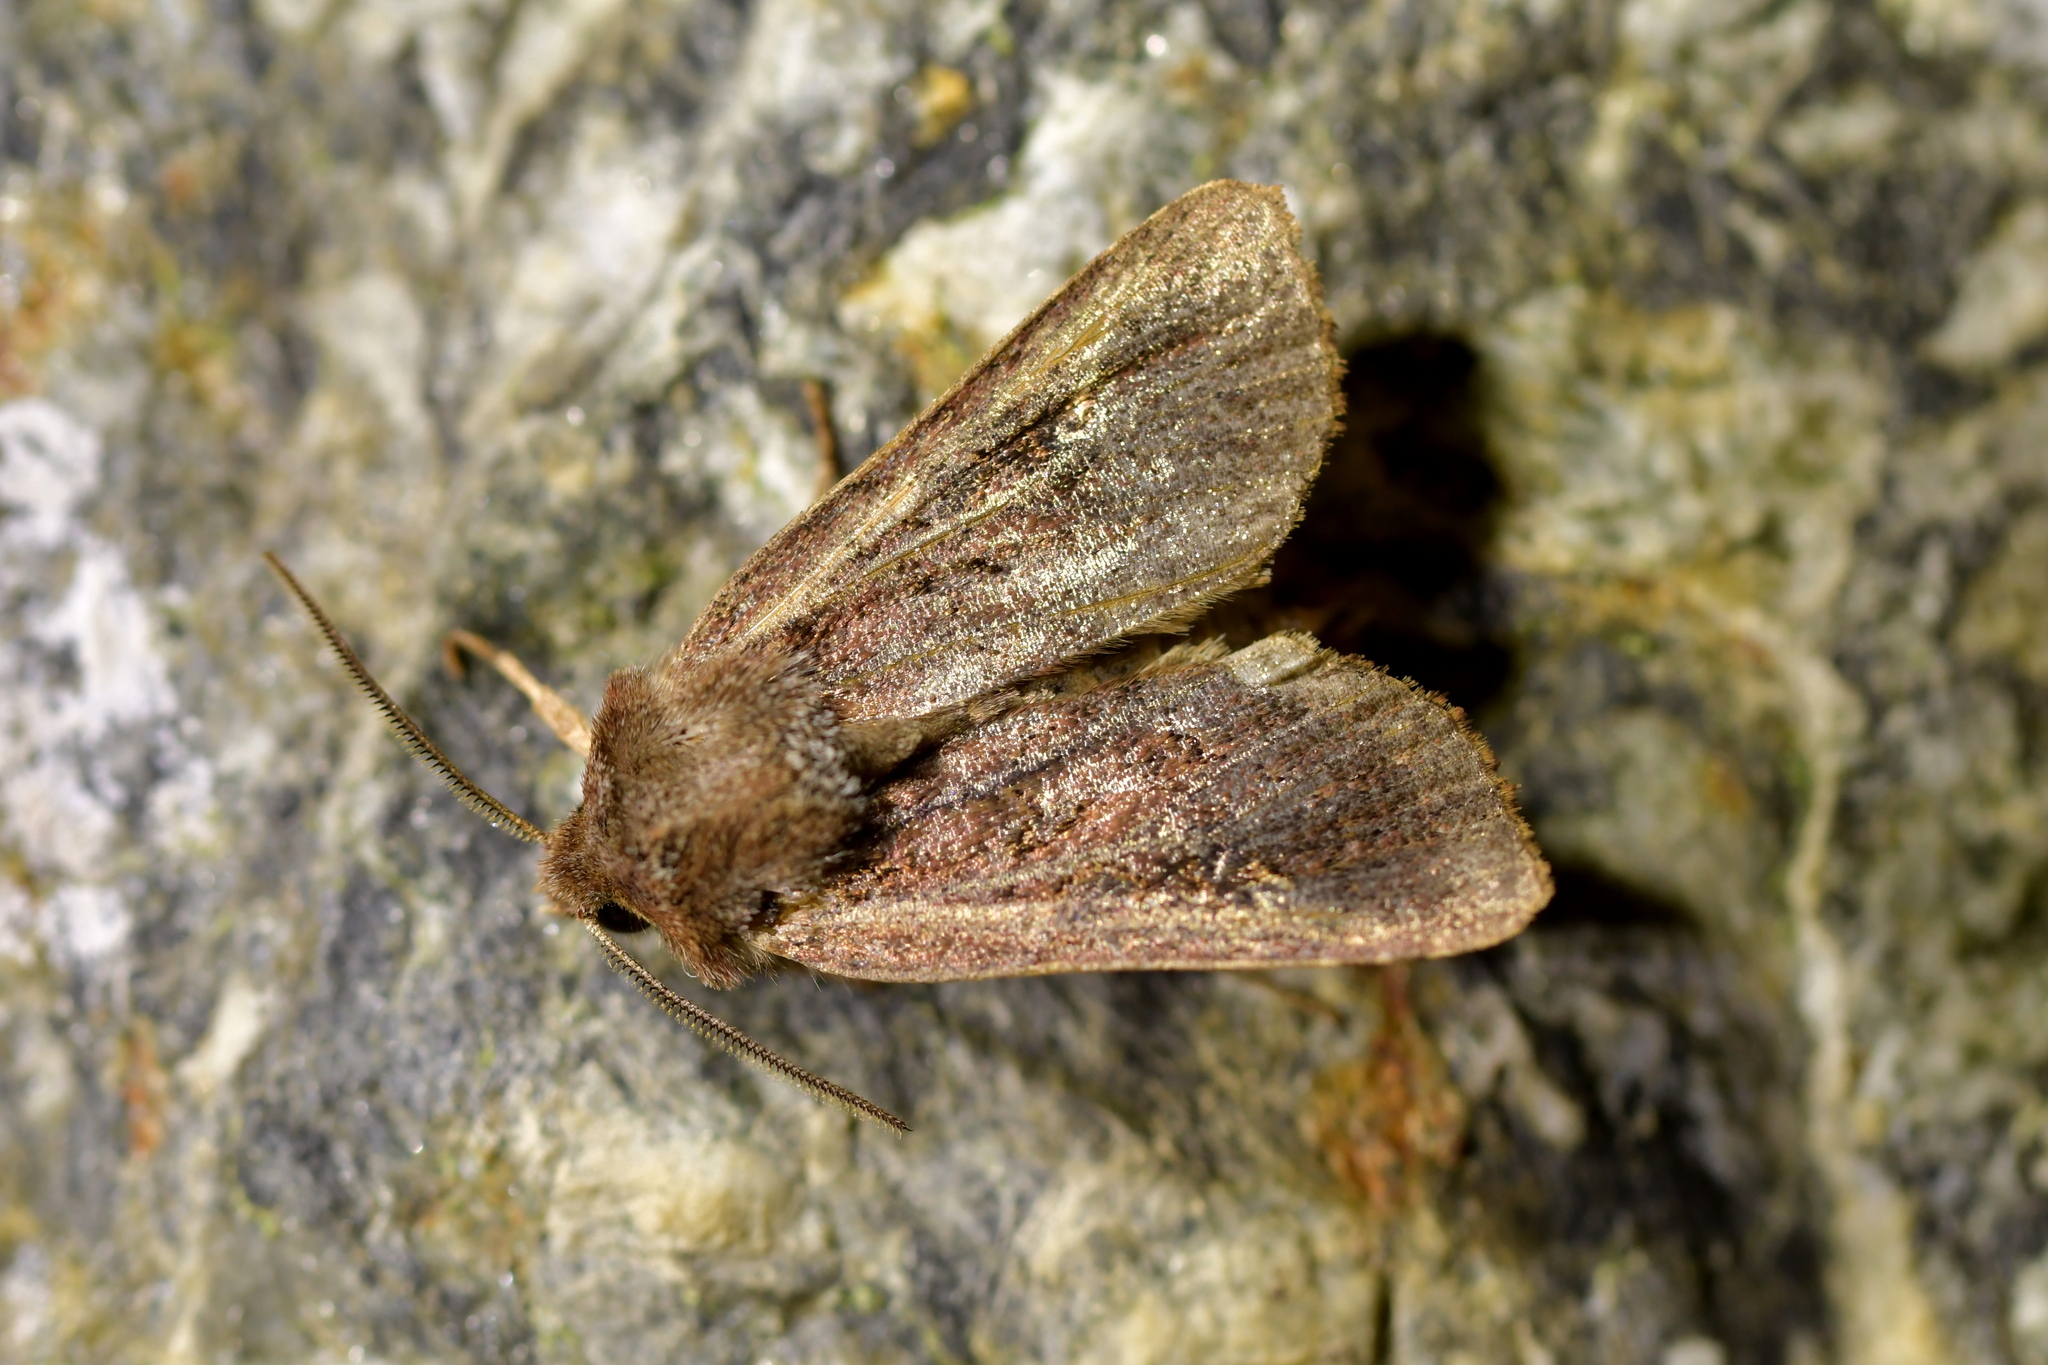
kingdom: Animalia
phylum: Arthropoda
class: Insecta
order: Lepidoptera
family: Noctuidae
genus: Ichneutica
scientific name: Ichneutica agorastis
